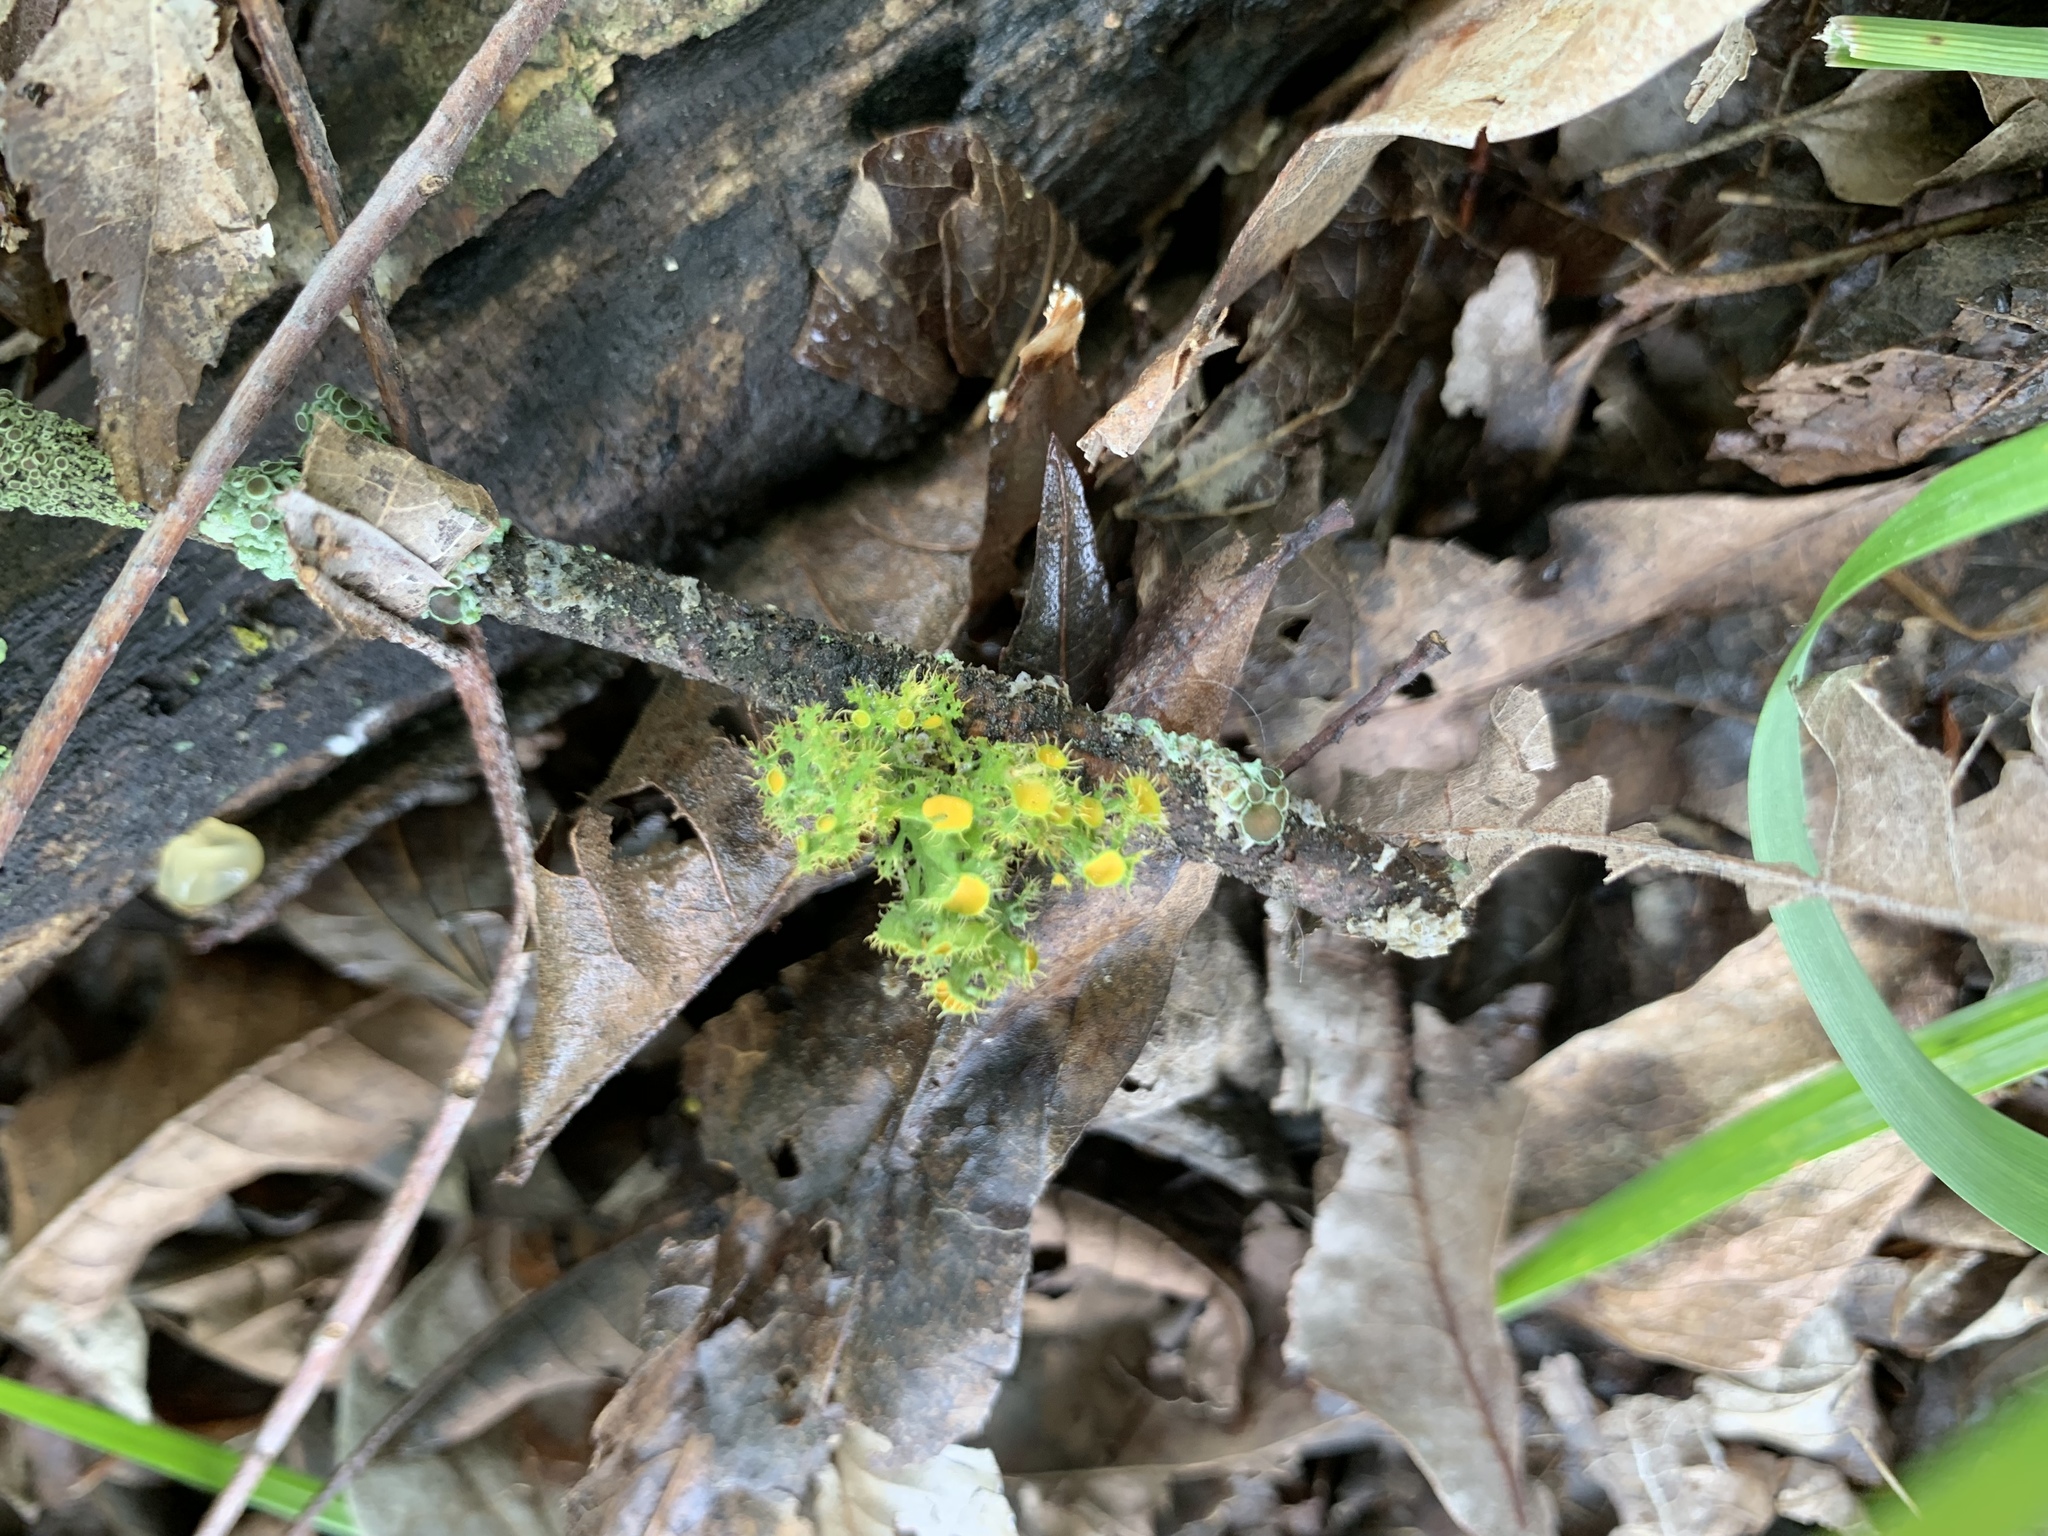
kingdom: Fungi
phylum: Ascomycota
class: Lecanoromycetes
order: Teloschistales
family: Teloschistaceae
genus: Niorma
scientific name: Niorma chrysophthalma
